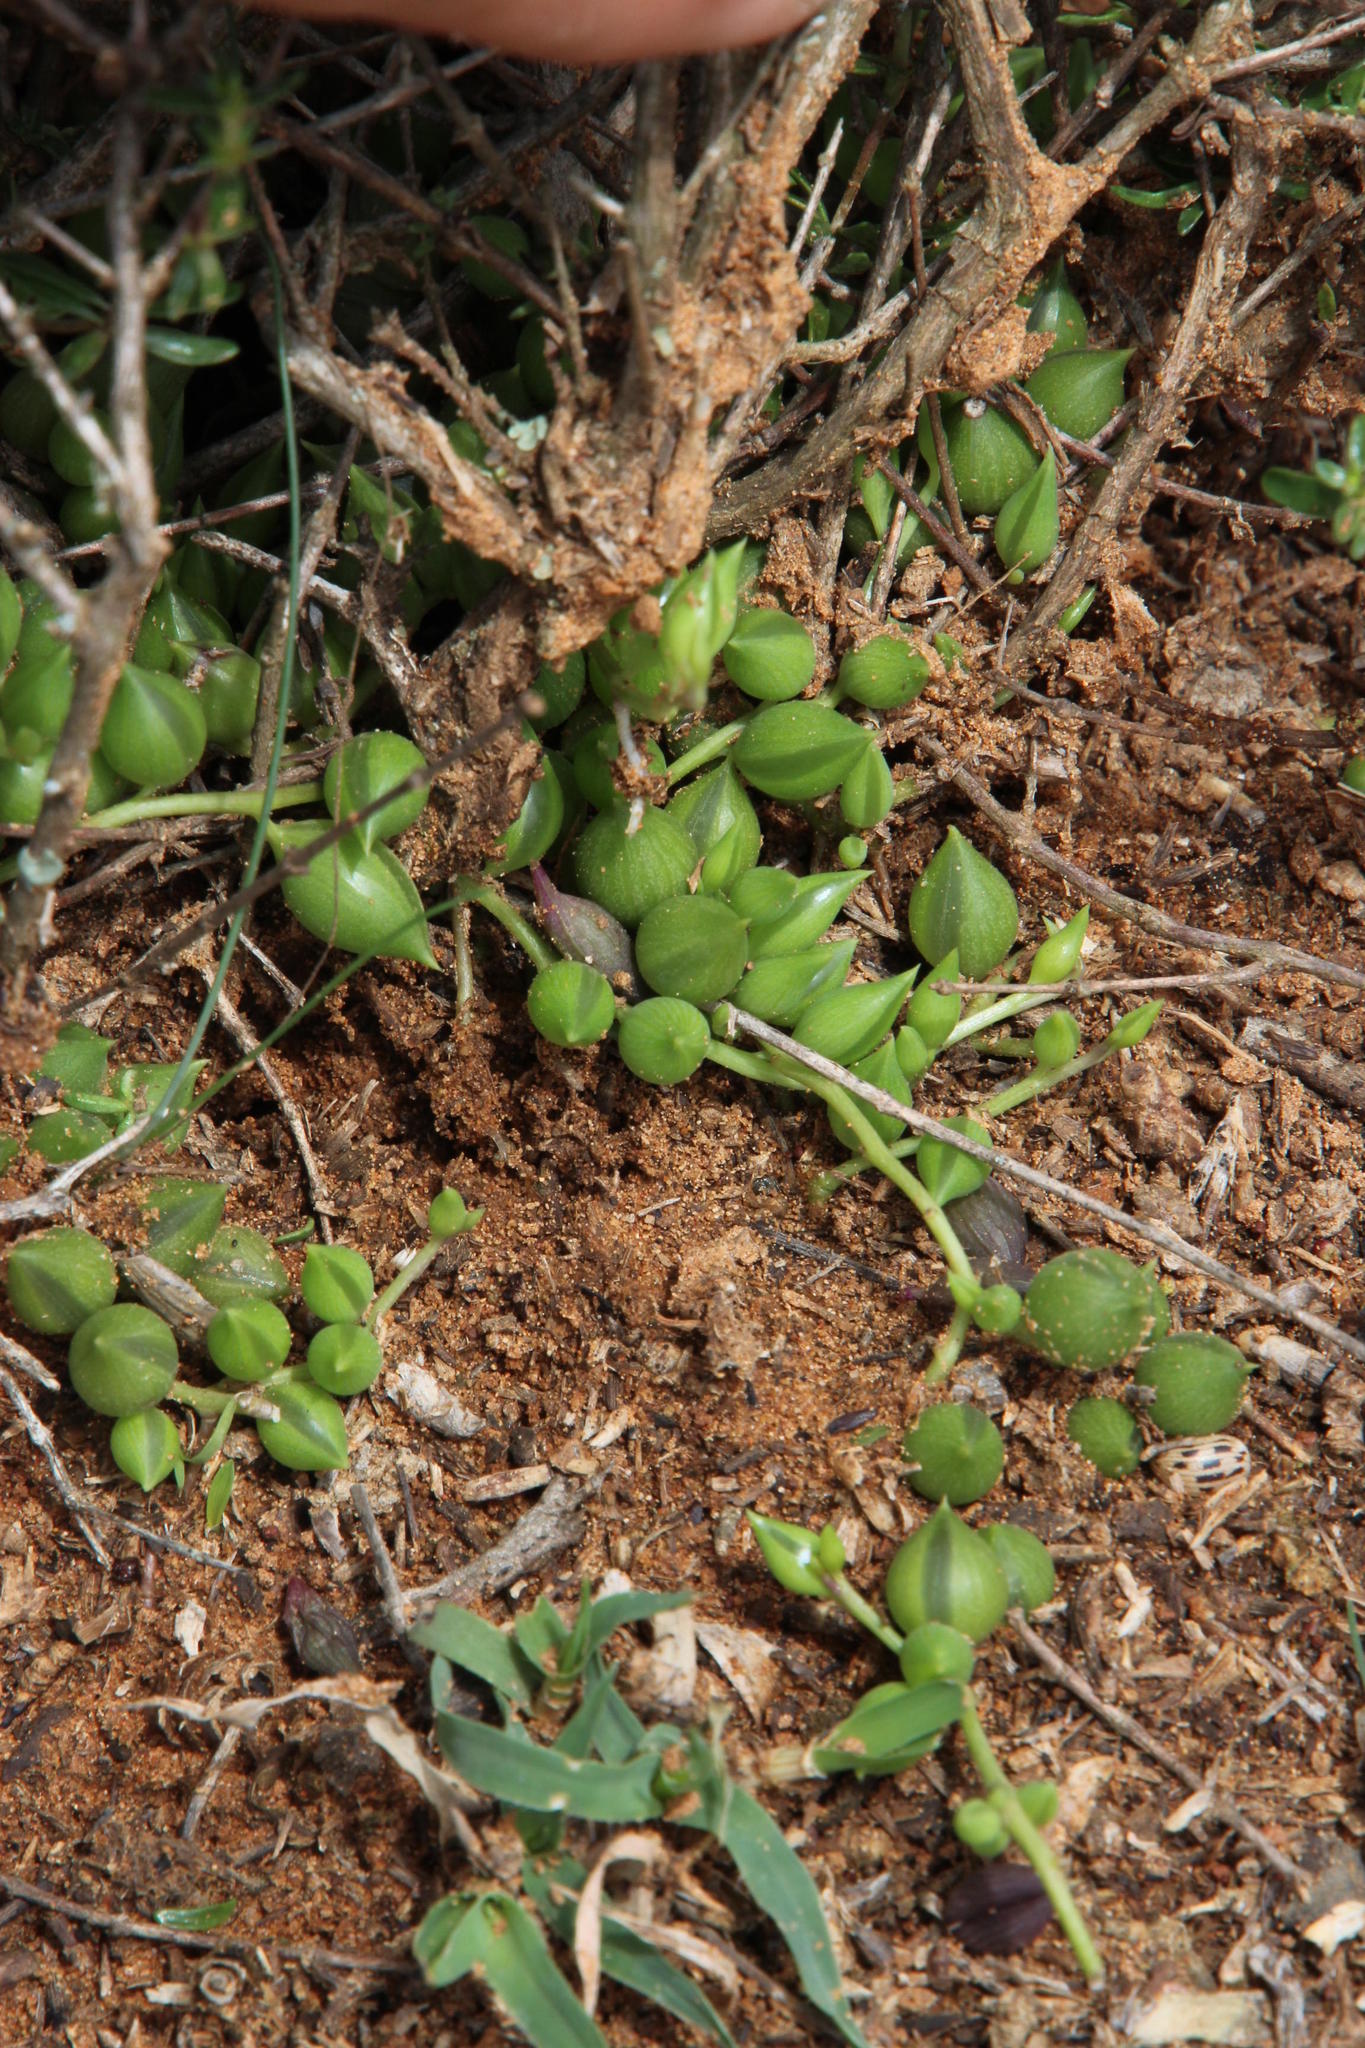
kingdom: Plantae
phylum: Tracheophyta
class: Magnoliopsida
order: Asterales
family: Asteraceae
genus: Curio
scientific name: Curio radicans
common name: Creeping-berry
